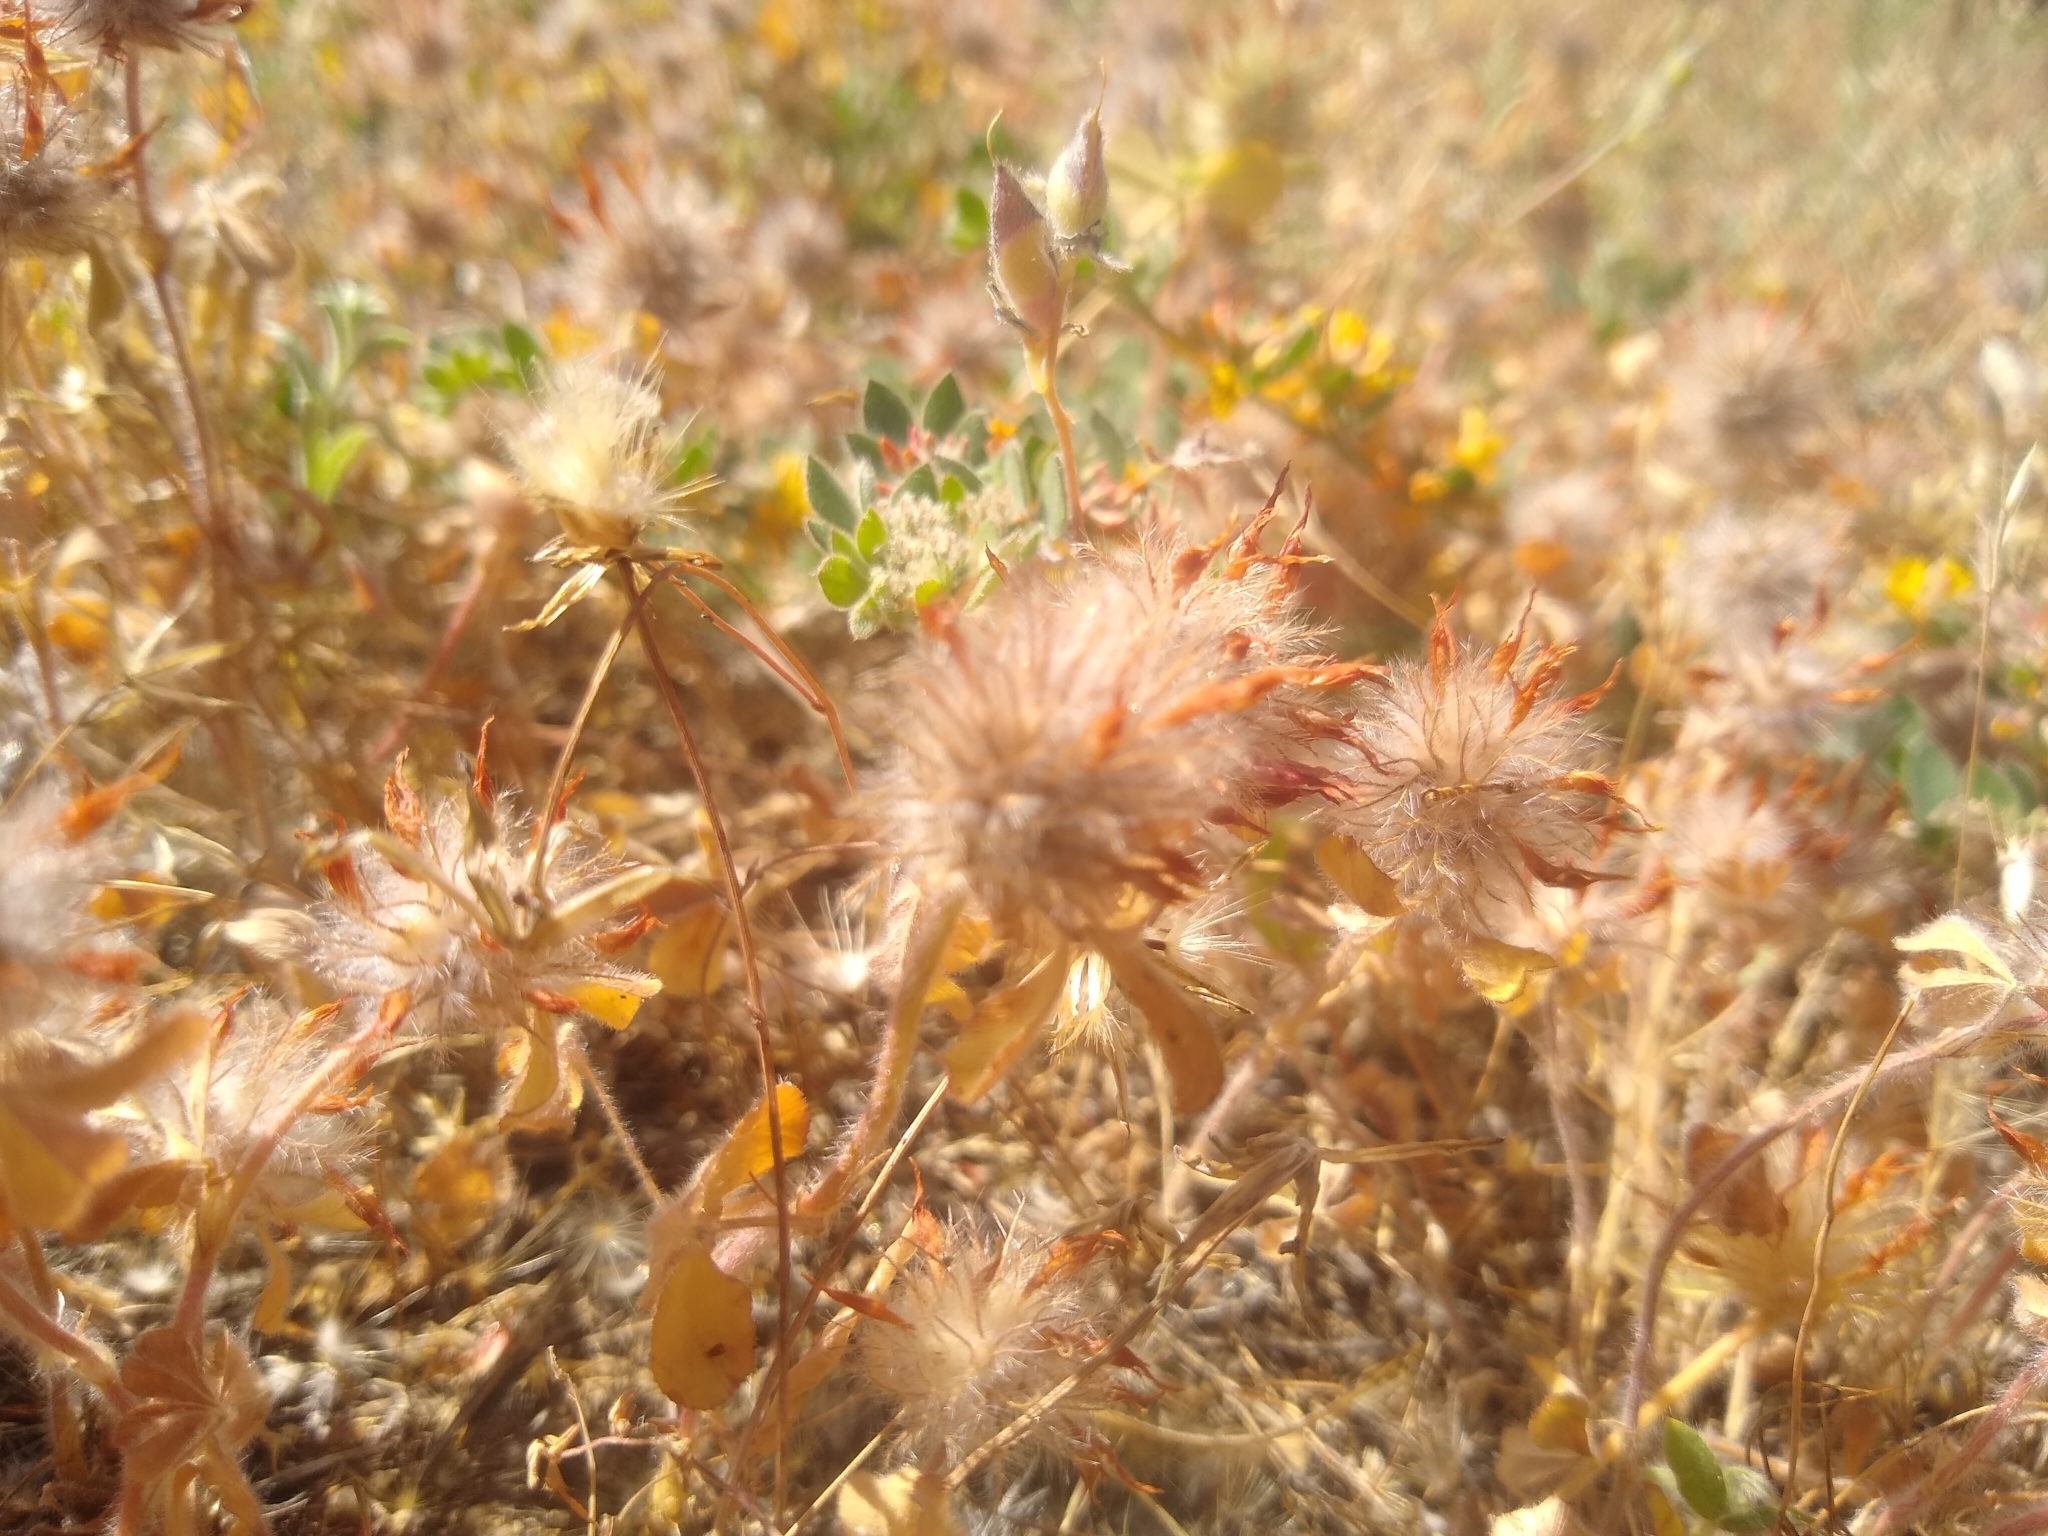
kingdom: Plantae
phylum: Tracheophyta
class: Magnoliopsida
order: Fabales
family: Fabaceae
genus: Trifolium
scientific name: Trifolium hirtum
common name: Rose clover
